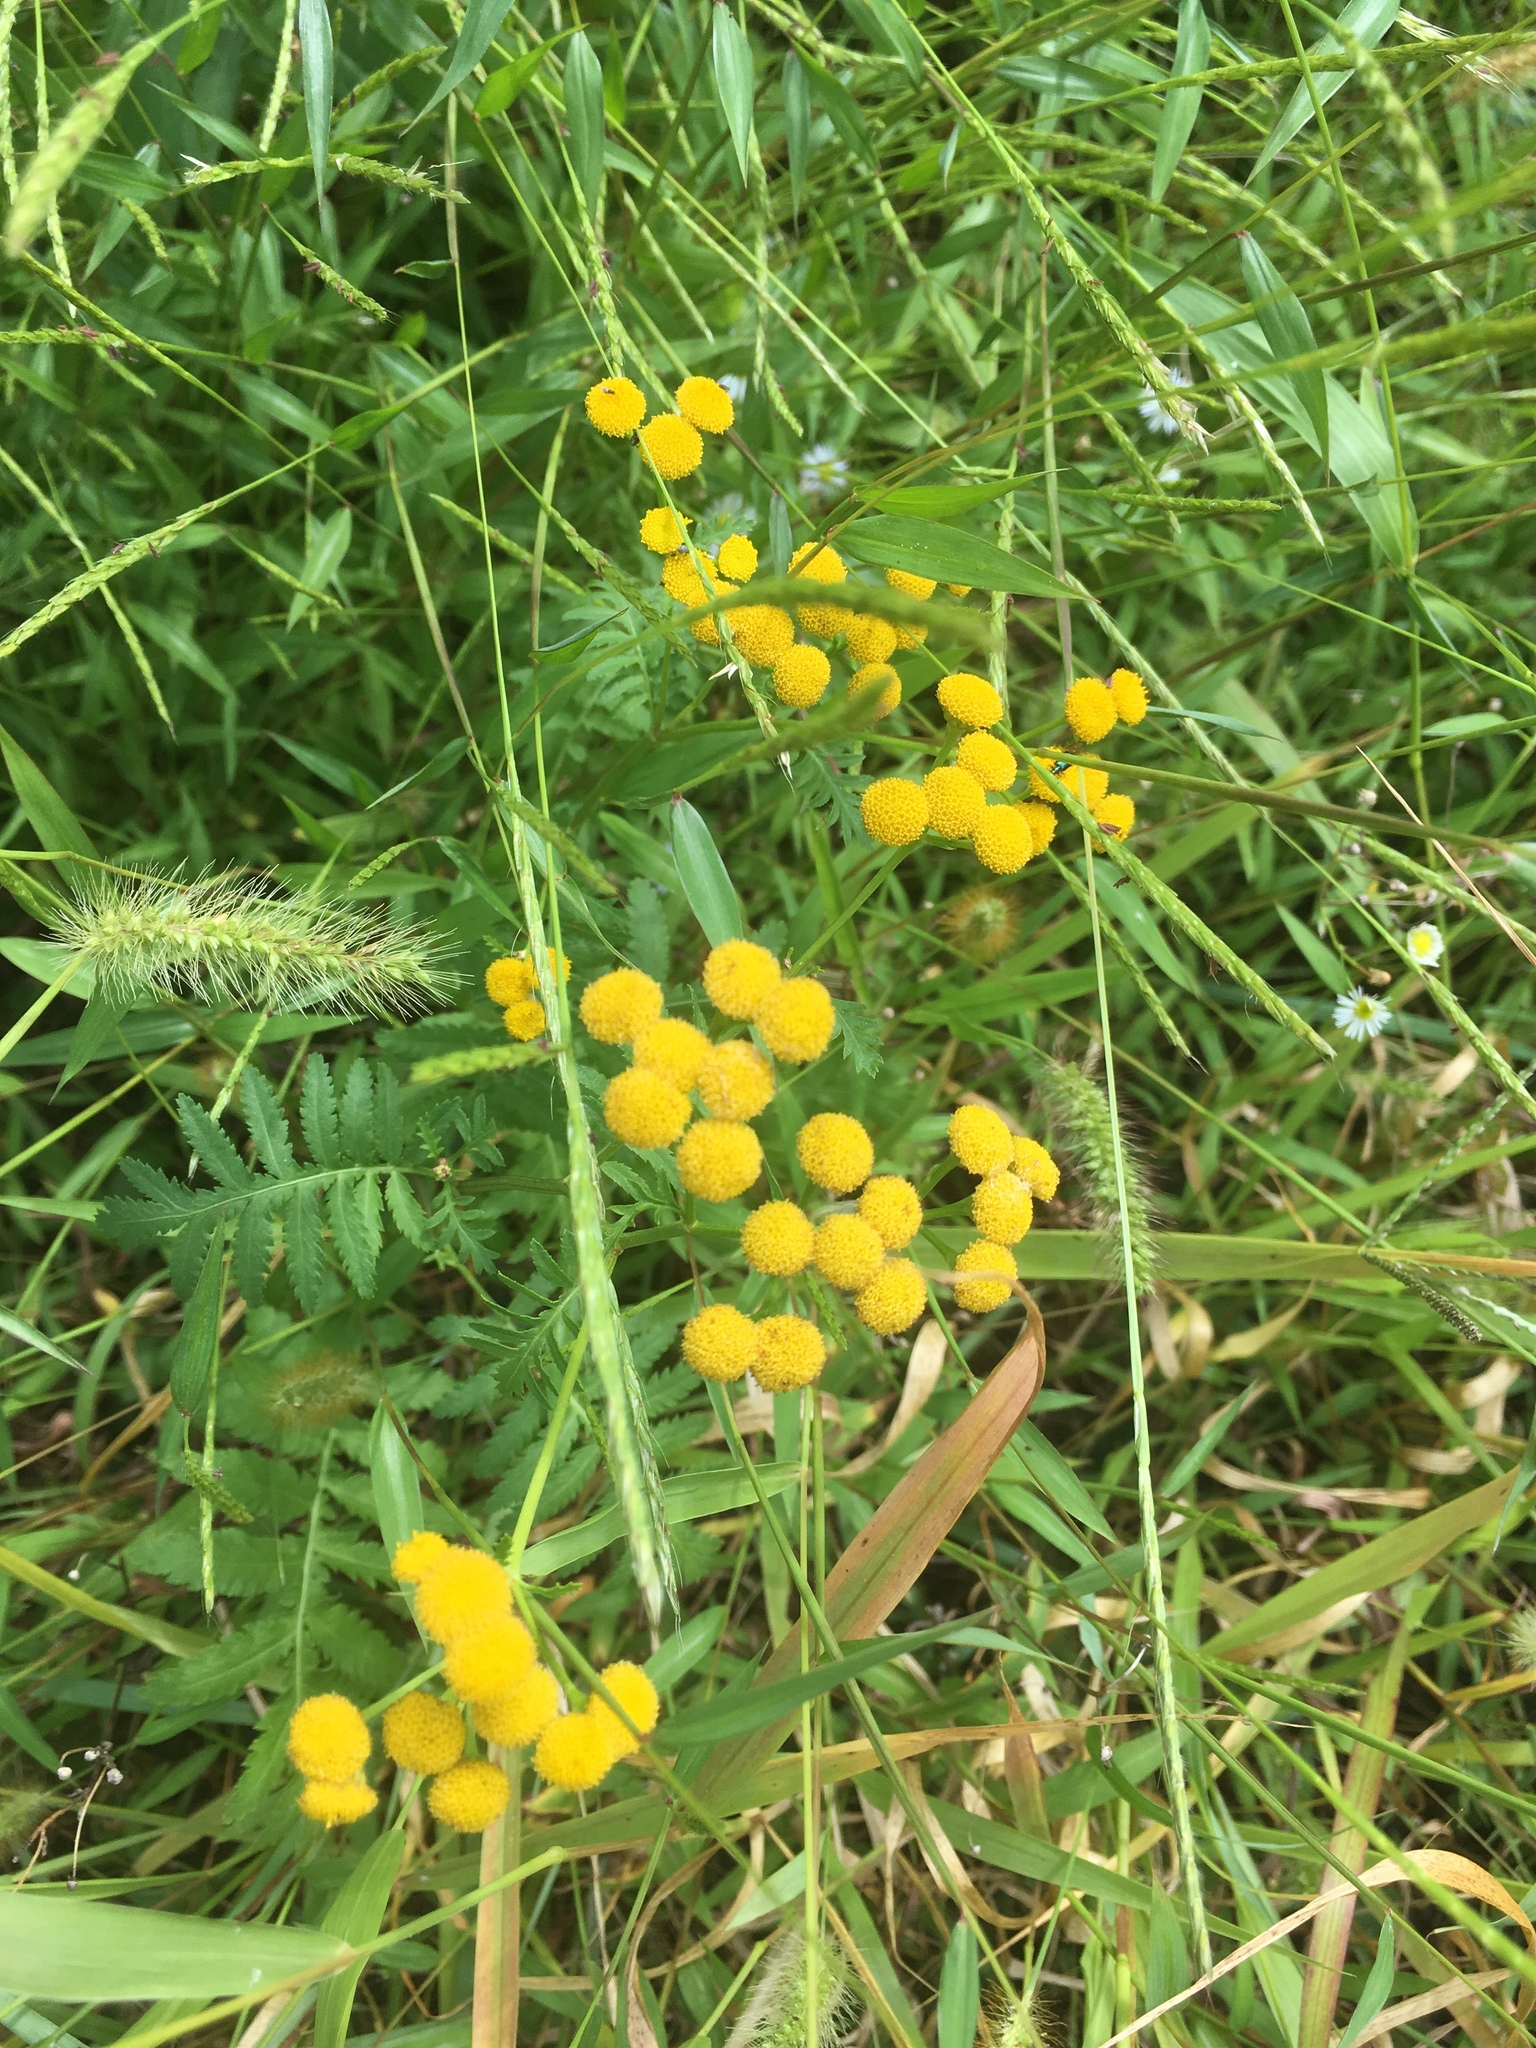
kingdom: Plantae
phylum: Tracheophyta
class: Magnoliopsida
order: Asterales
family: Asteraceae
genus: Tanacetum
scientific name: Tanacetum vulgare
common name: Common tansy
